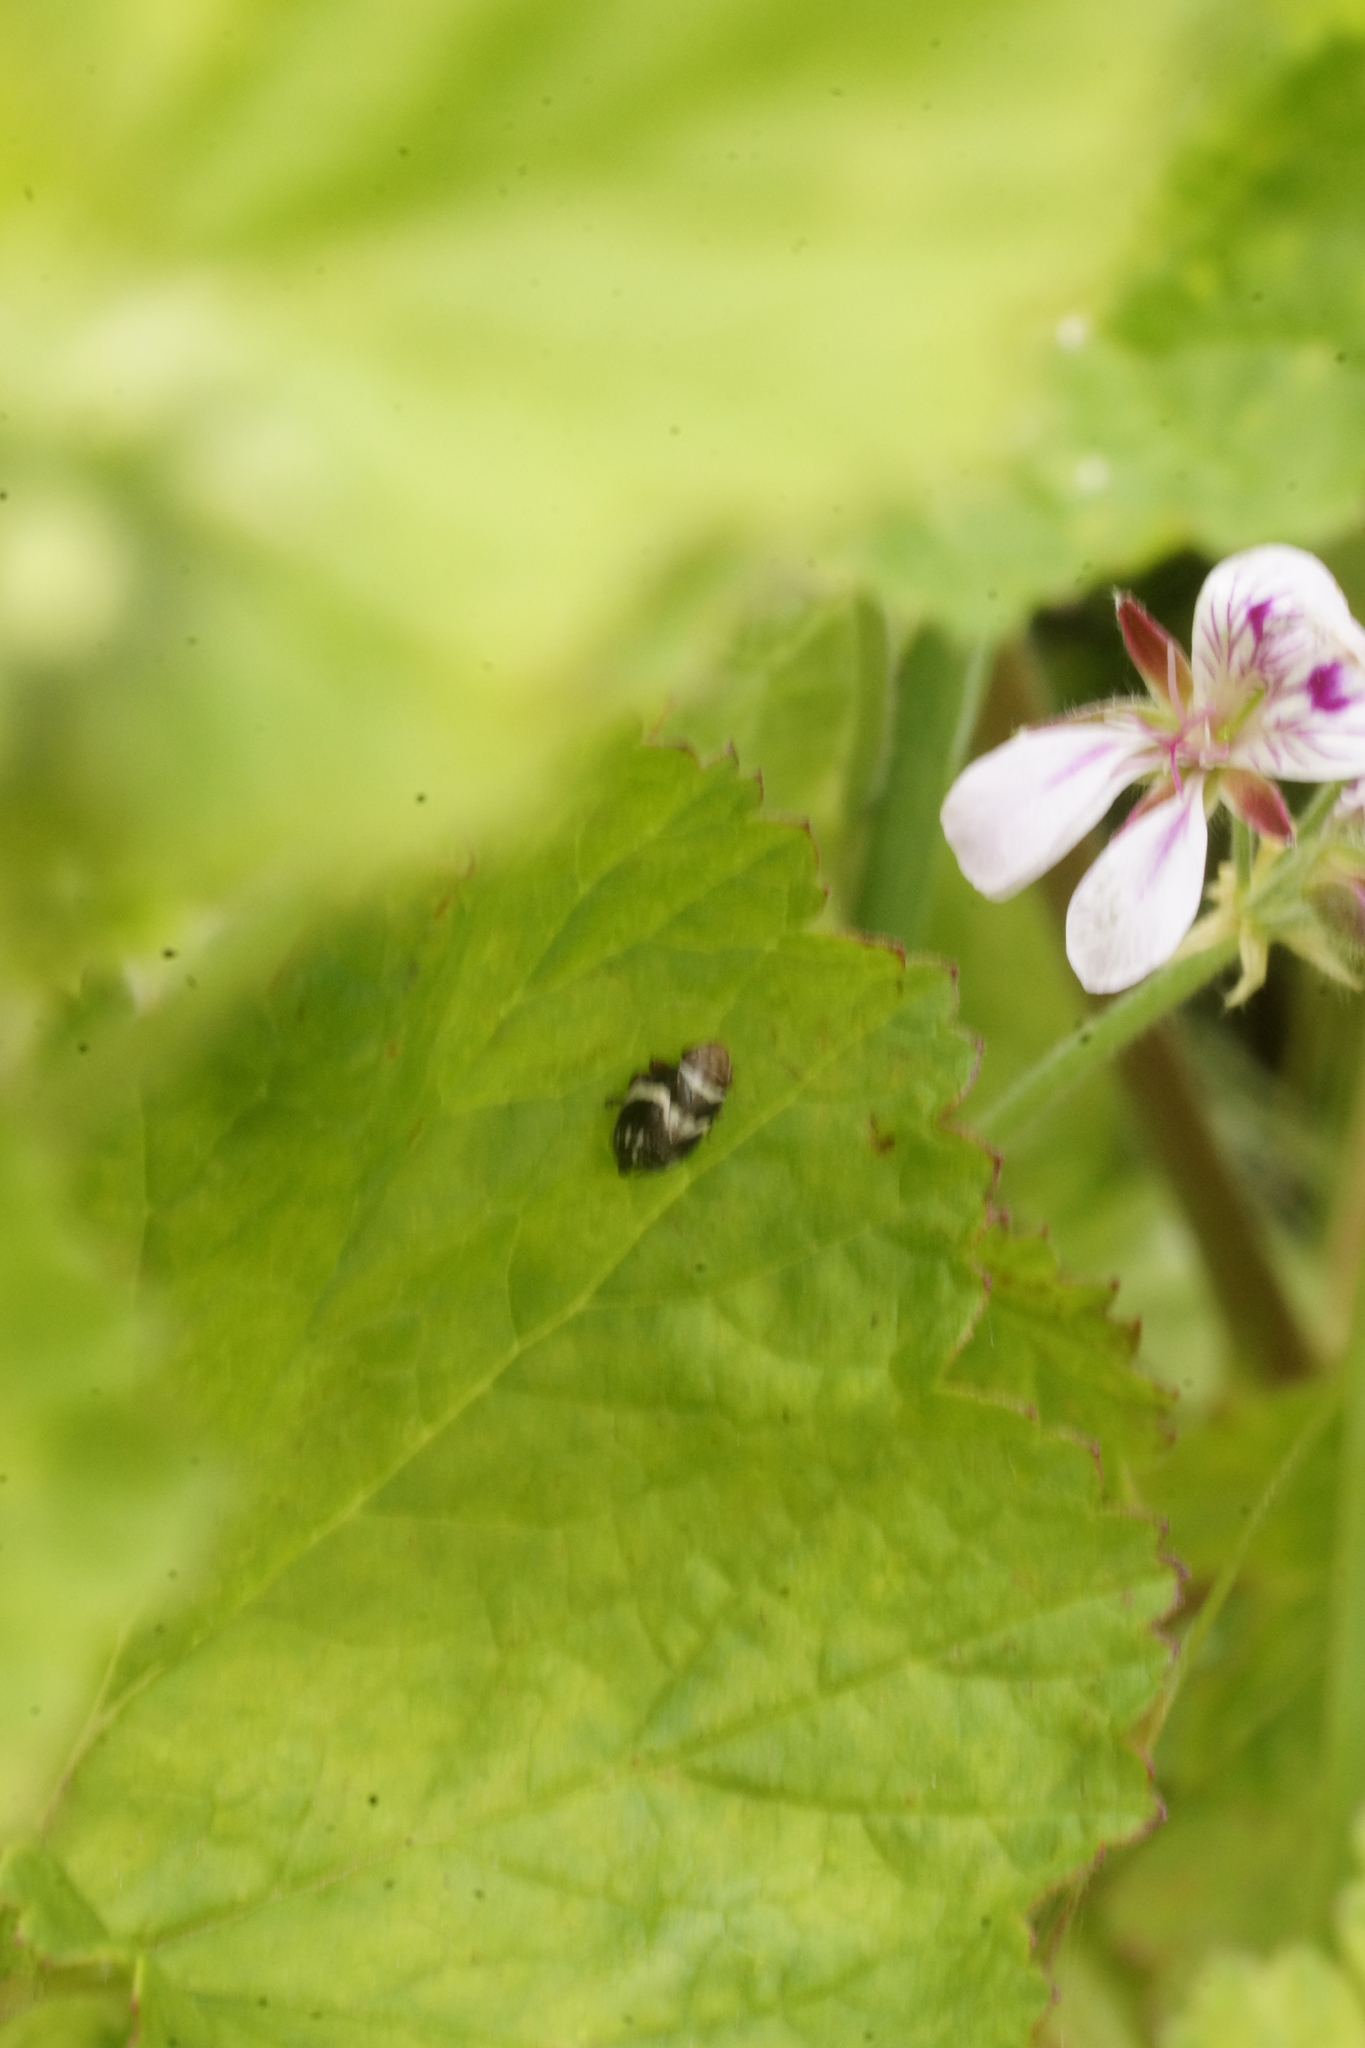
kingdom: Animalia
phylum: Arthropoda
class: Insecta
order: Hemiptera
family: Aphrophoridae
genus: Bathyllus
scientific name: Bathyllus albicinctus
